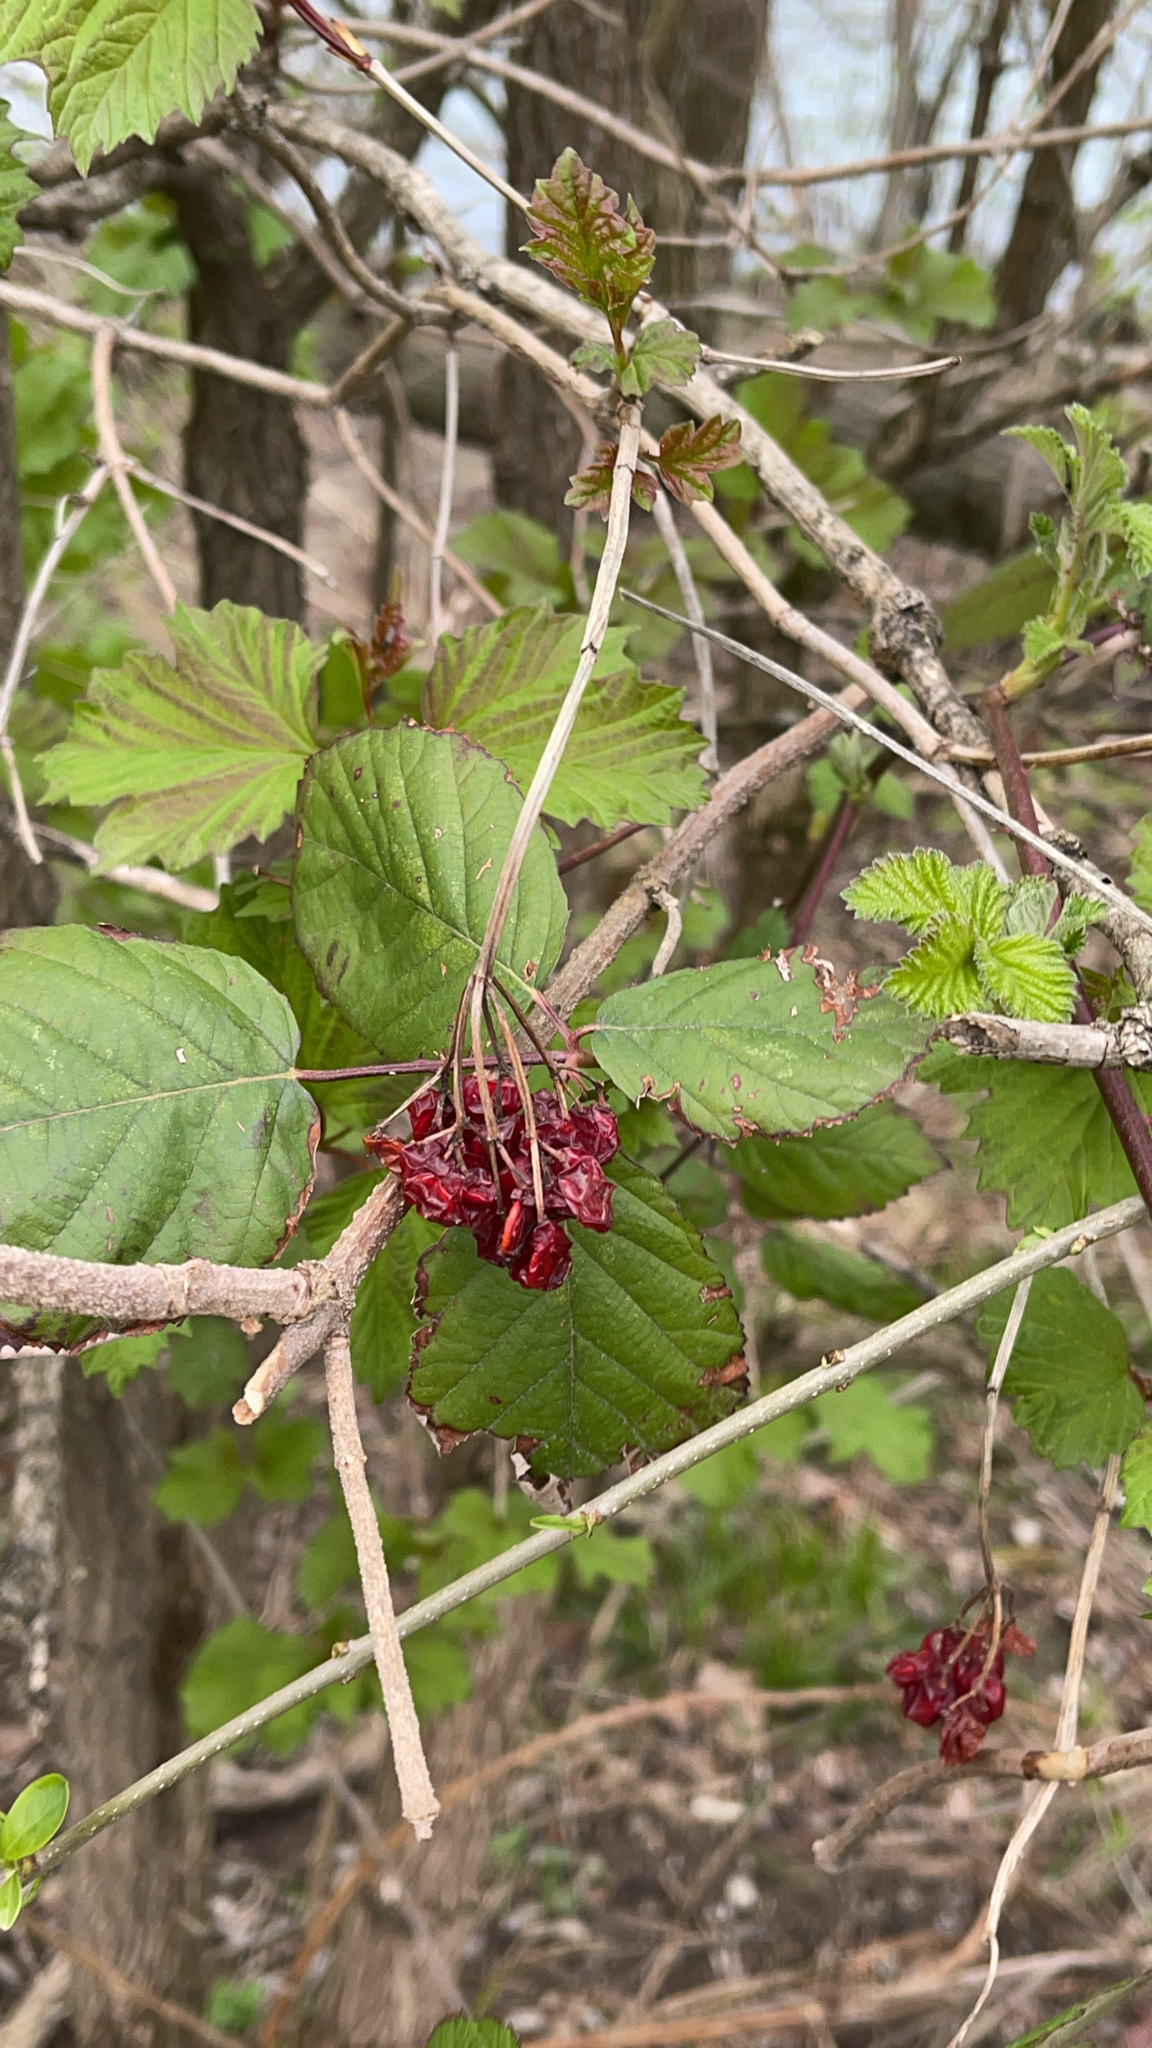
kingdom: Plantae
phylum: Tracheophyta
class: Magnoliopsida
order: Dipsacales
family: Viburnaceae
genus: Viburnum
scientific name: Viburnum opulus
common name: Guelder-rose
